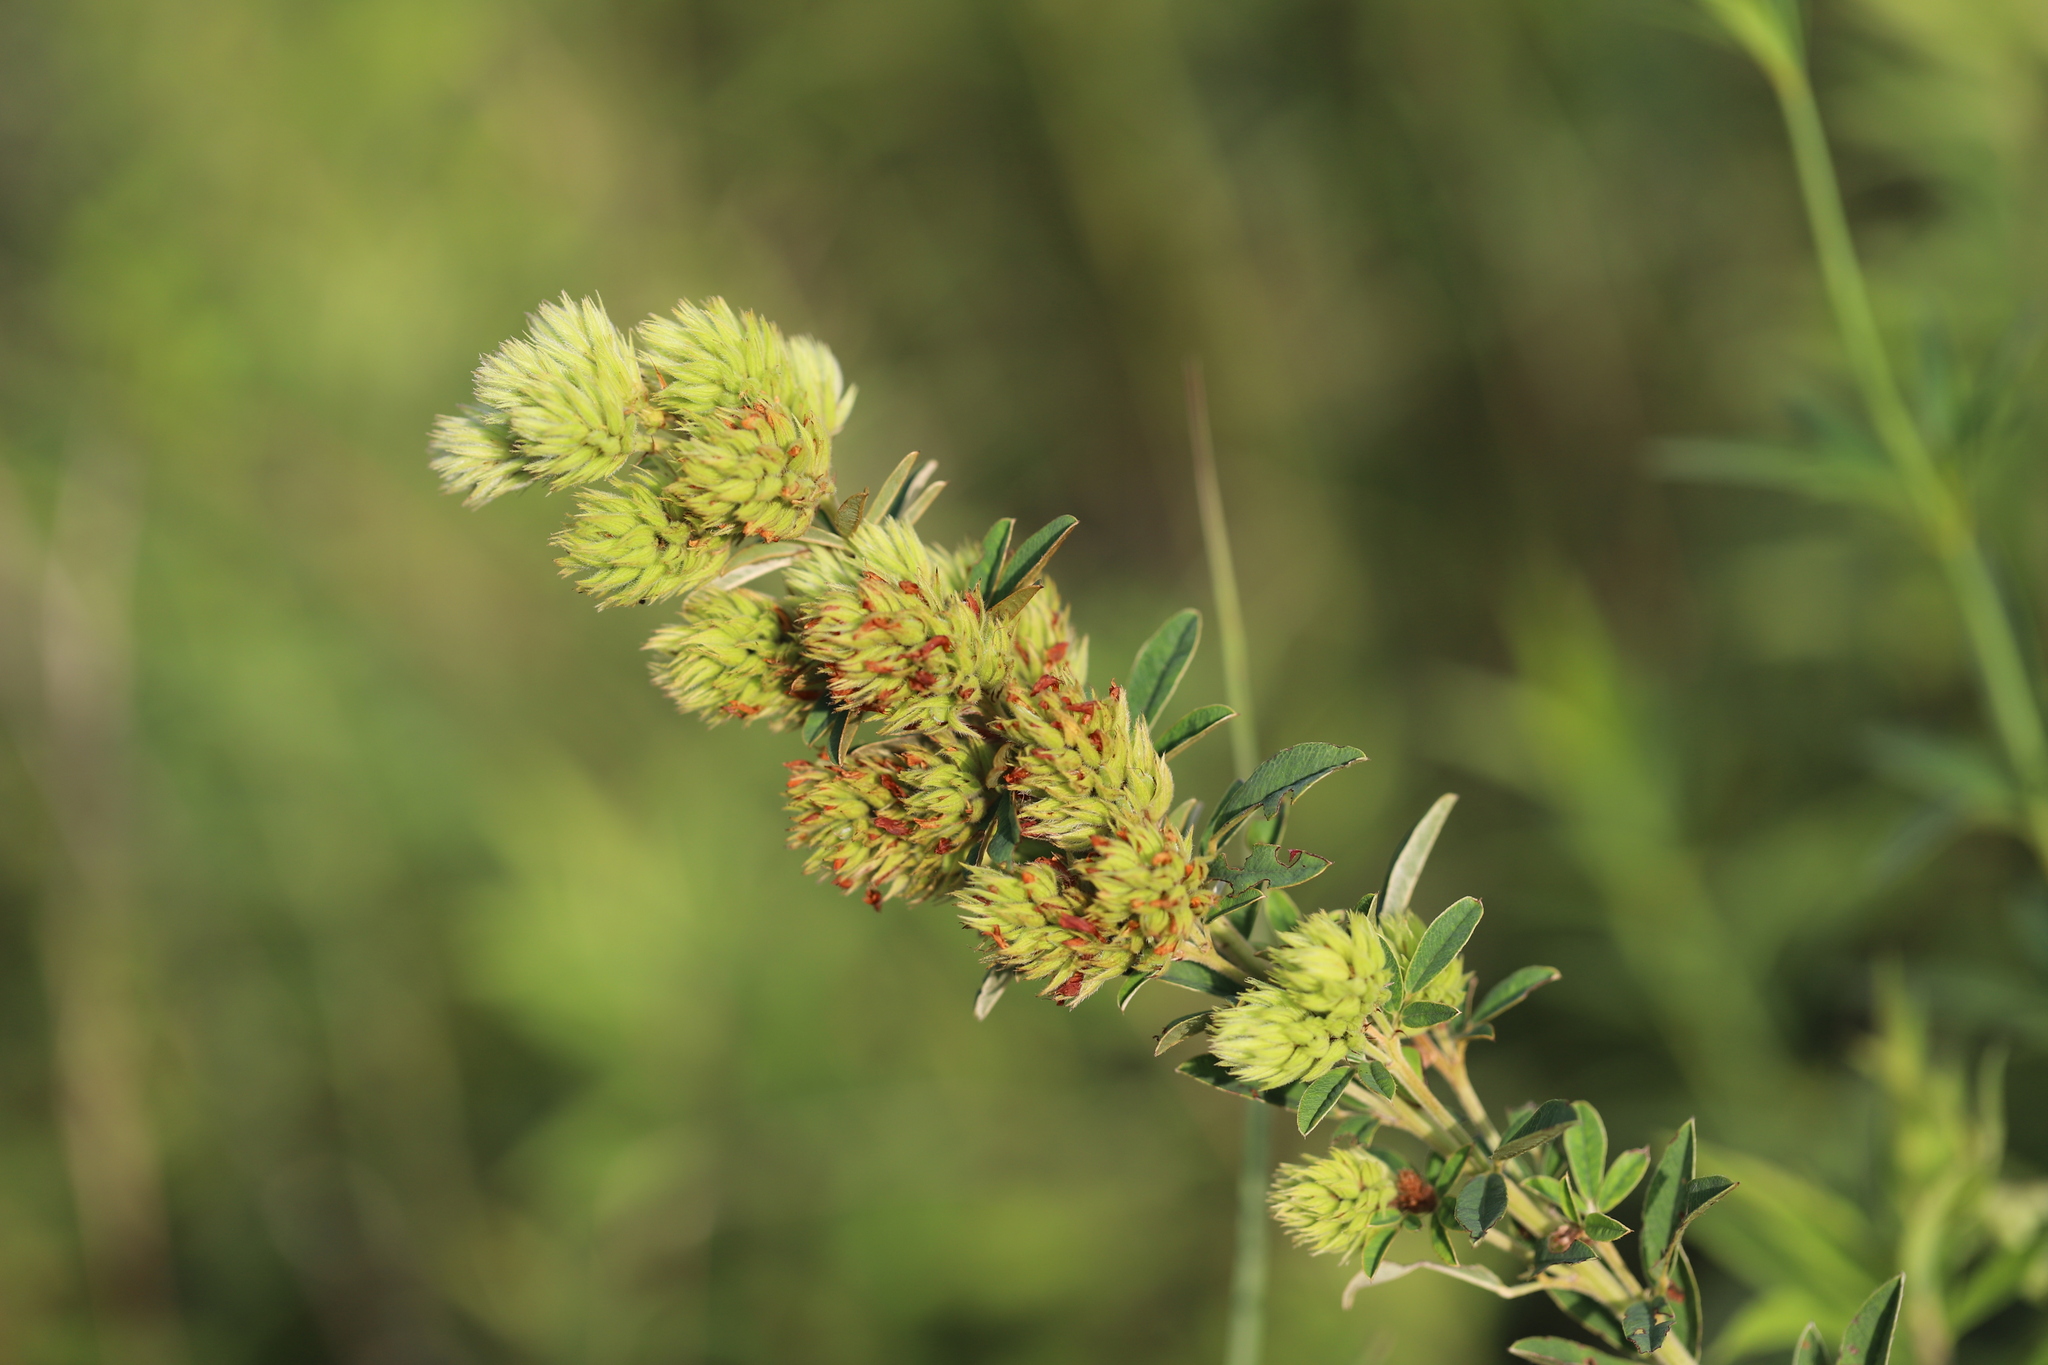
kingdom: Plantae
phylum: Tracheophyta
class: Magnoliopsida
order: Fabales
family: Fabaceae
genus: Lespedeza
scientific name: Lespedeza capitata
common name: Dusty clover
